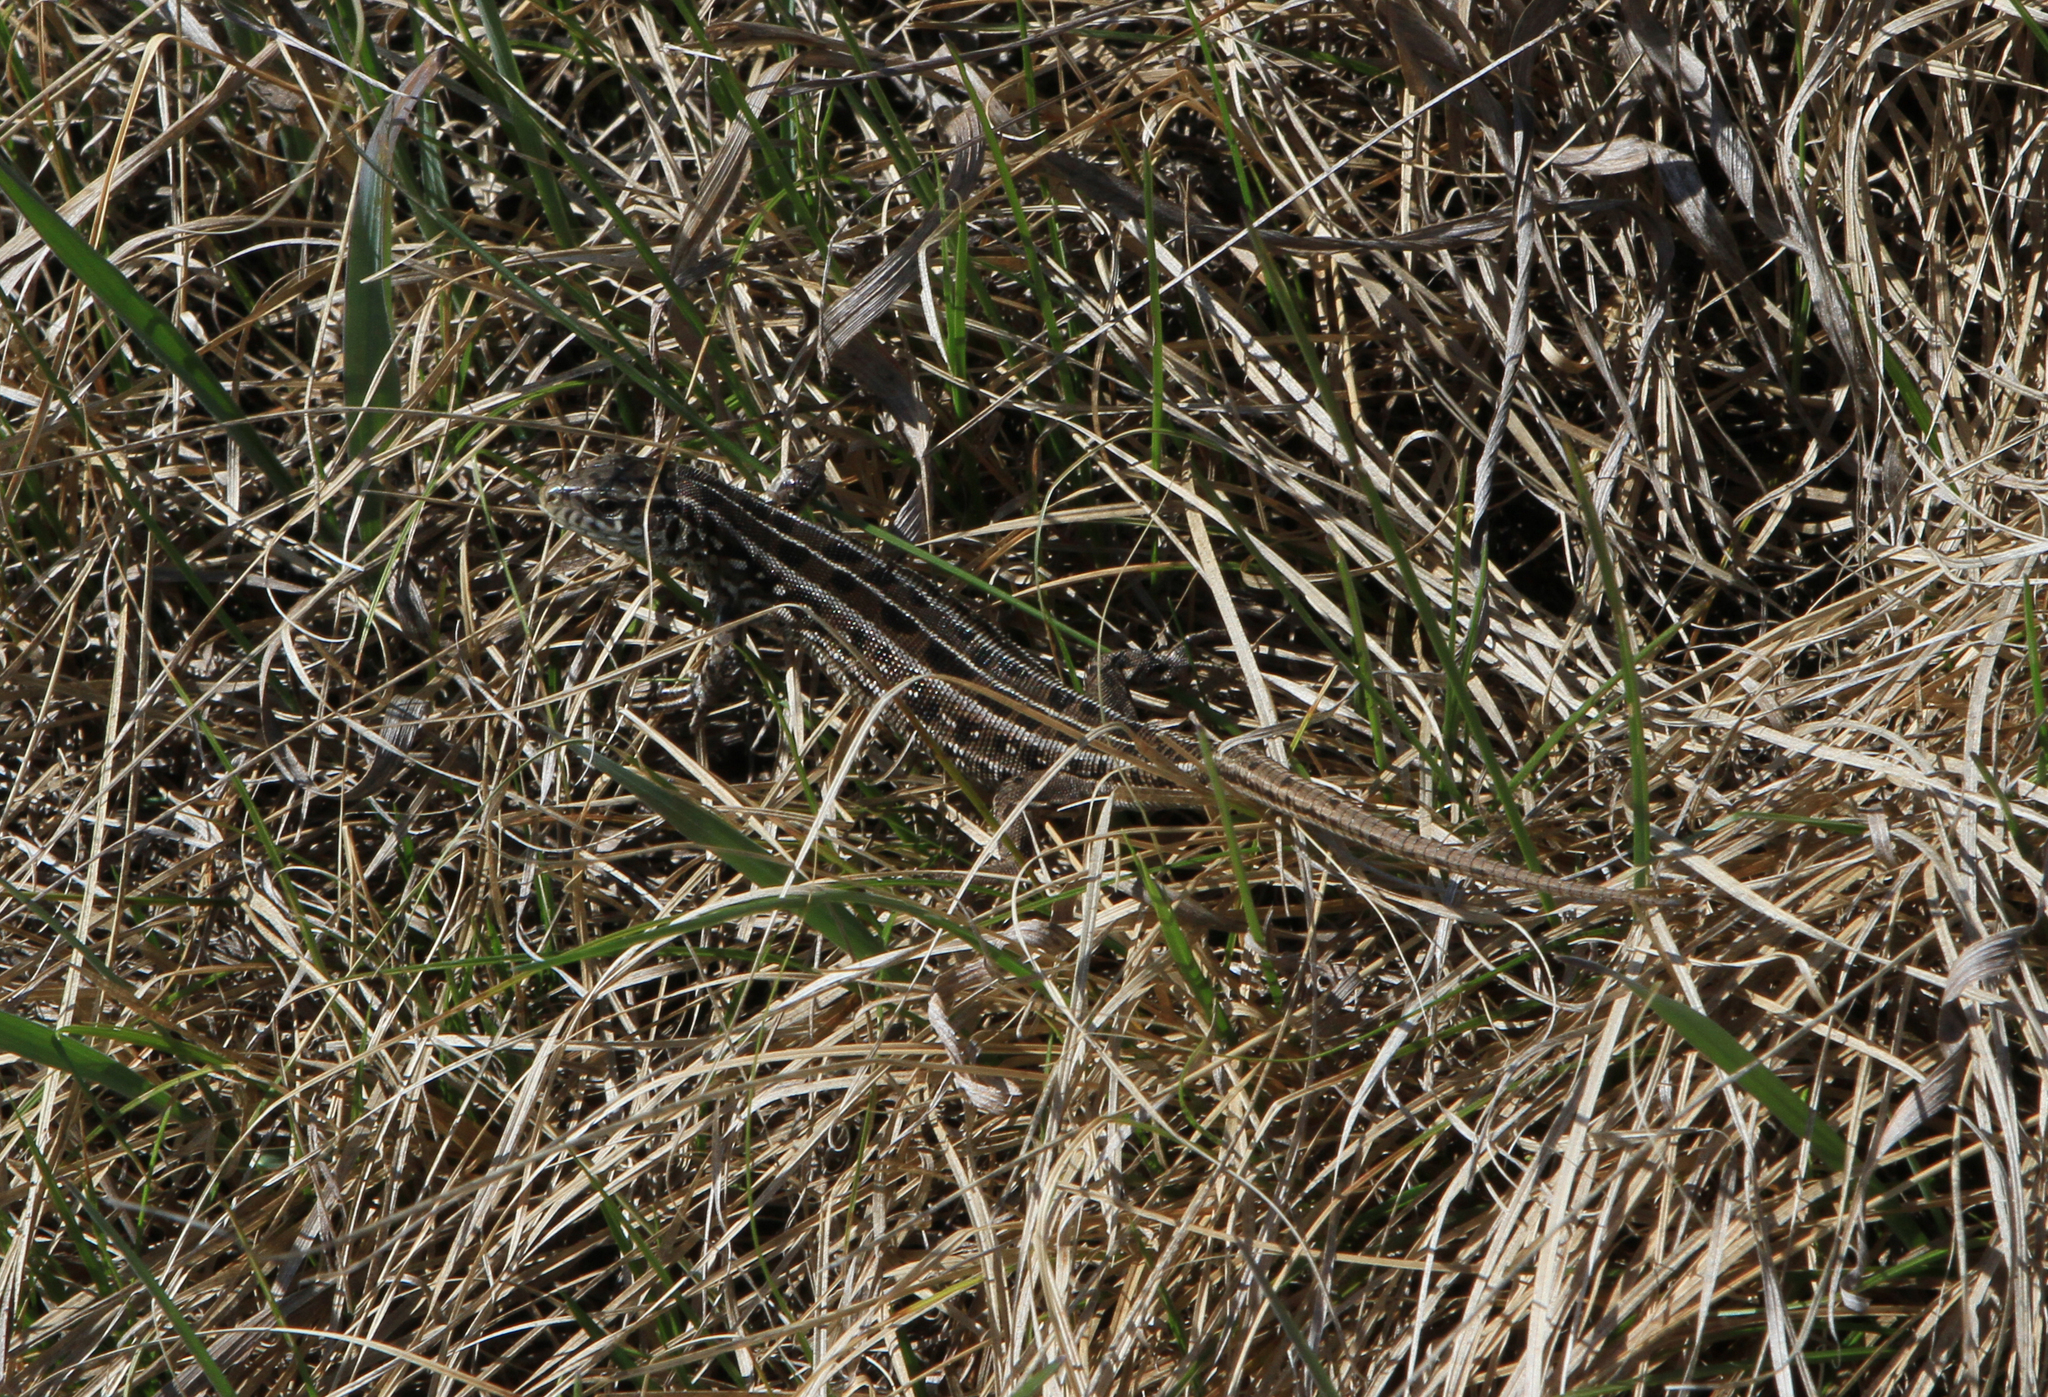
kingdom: Animalia
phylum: Chordata
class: Squamata
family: Lacertidae
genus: Lacerta
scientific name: Lacerta agilis
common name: Sand lizard
